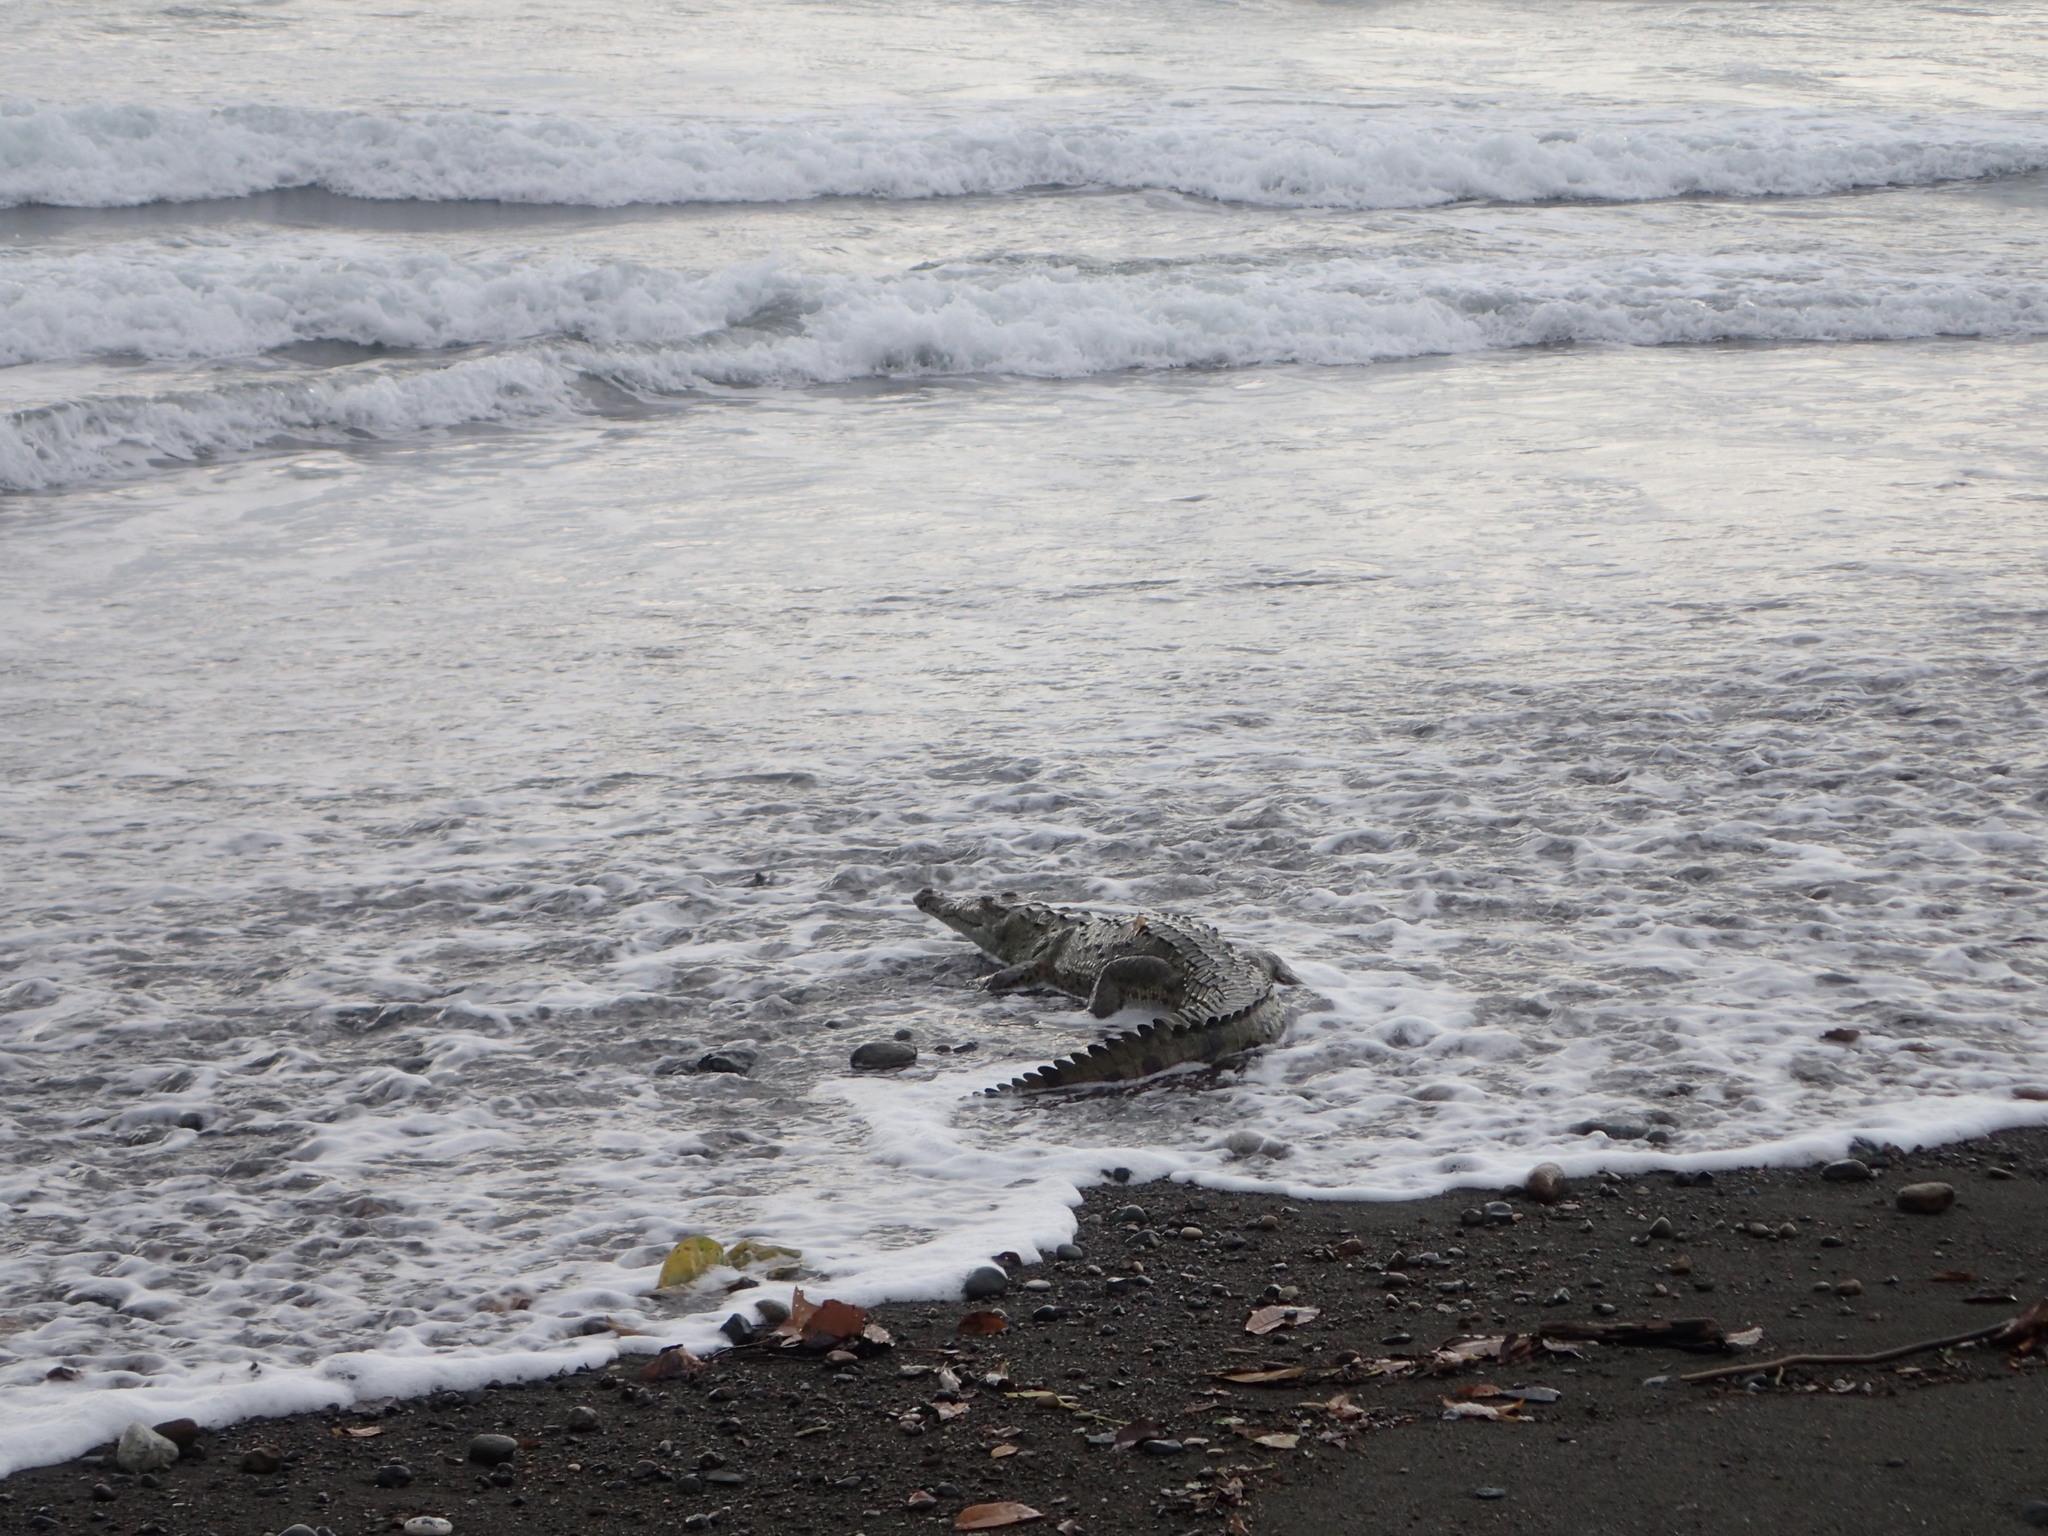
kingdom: Animalia
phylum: Chordata
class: Crocodylia
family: Crocodylidae
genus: Crocodylus
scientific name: Crocodylus acutus
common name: American crocodile
